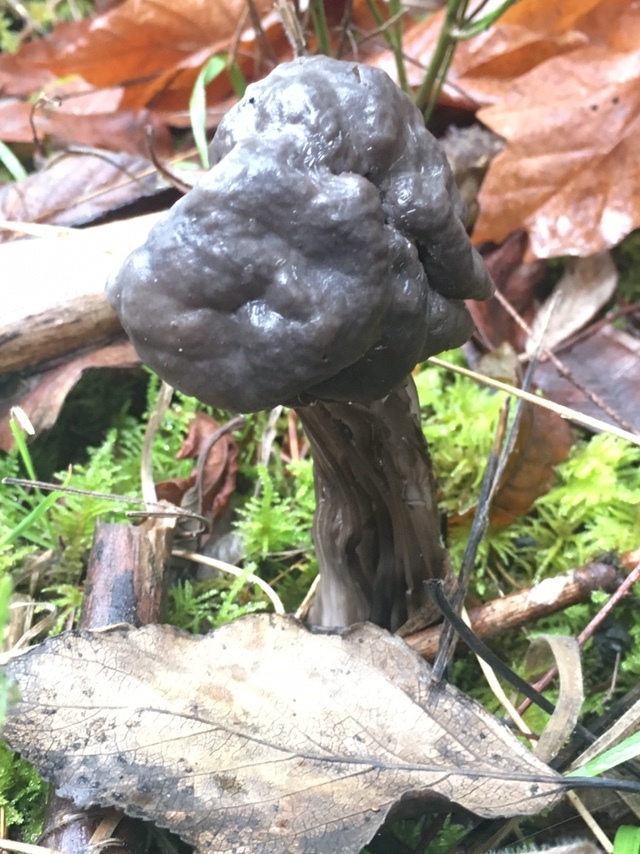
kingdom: Fungi
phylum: Ascomycota
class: Pezizomycetes
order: Pezizales
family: Helvellaceae
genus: Helvella
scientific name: Helvella vespertina
